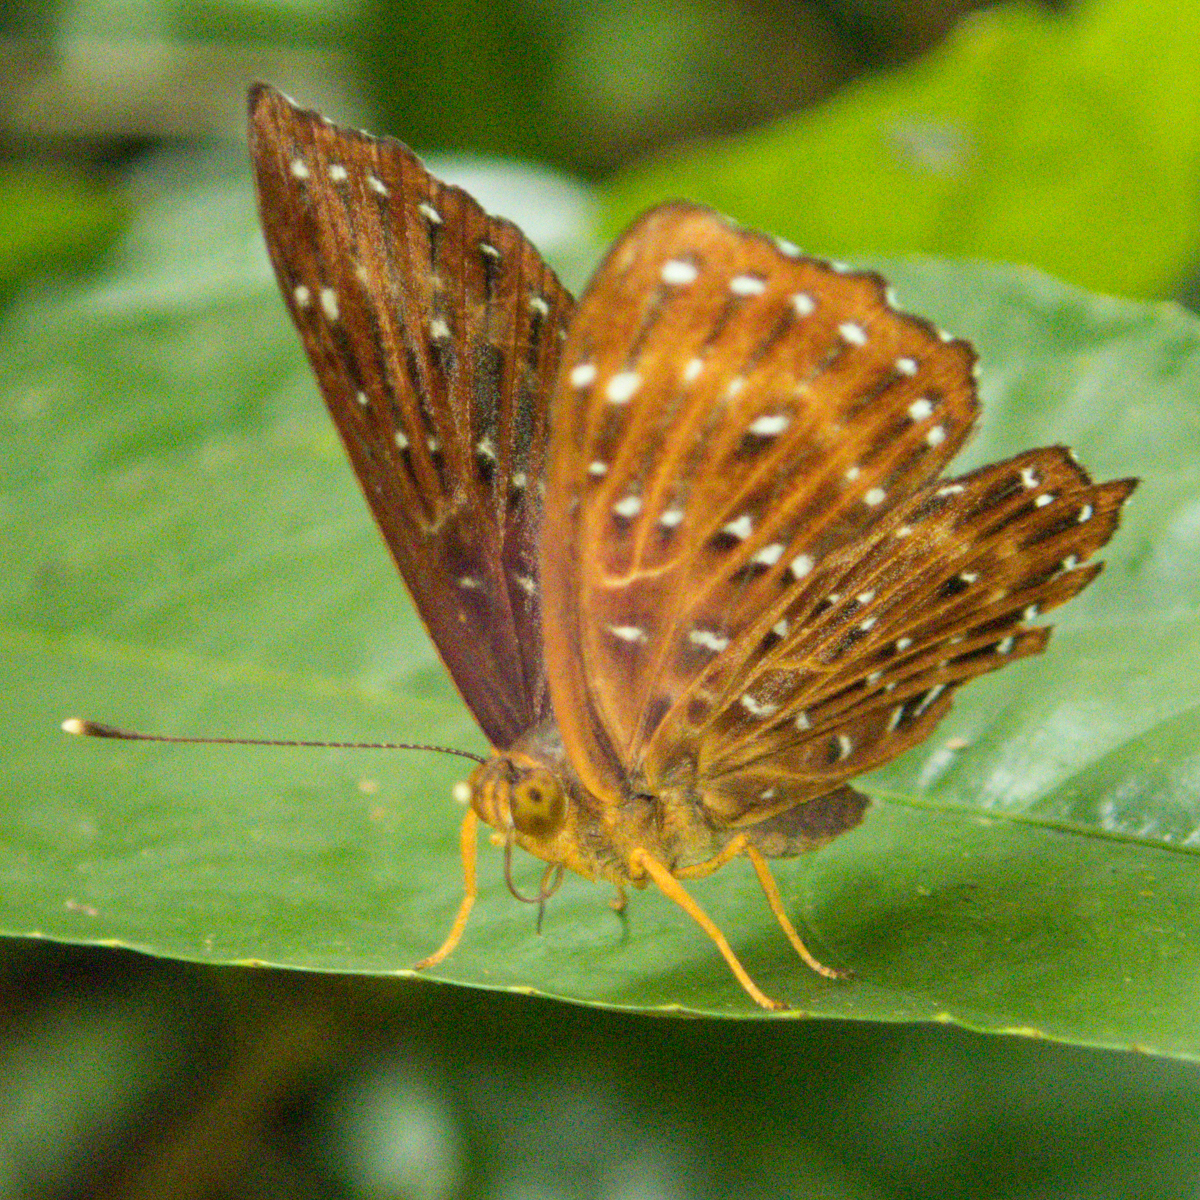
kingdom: Animalia
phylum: Arthropoda
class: Insecta
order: Lepidoptera
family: Riodinidae
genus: Zemeros
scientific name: Zemeros flegyas
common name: Punchinello
